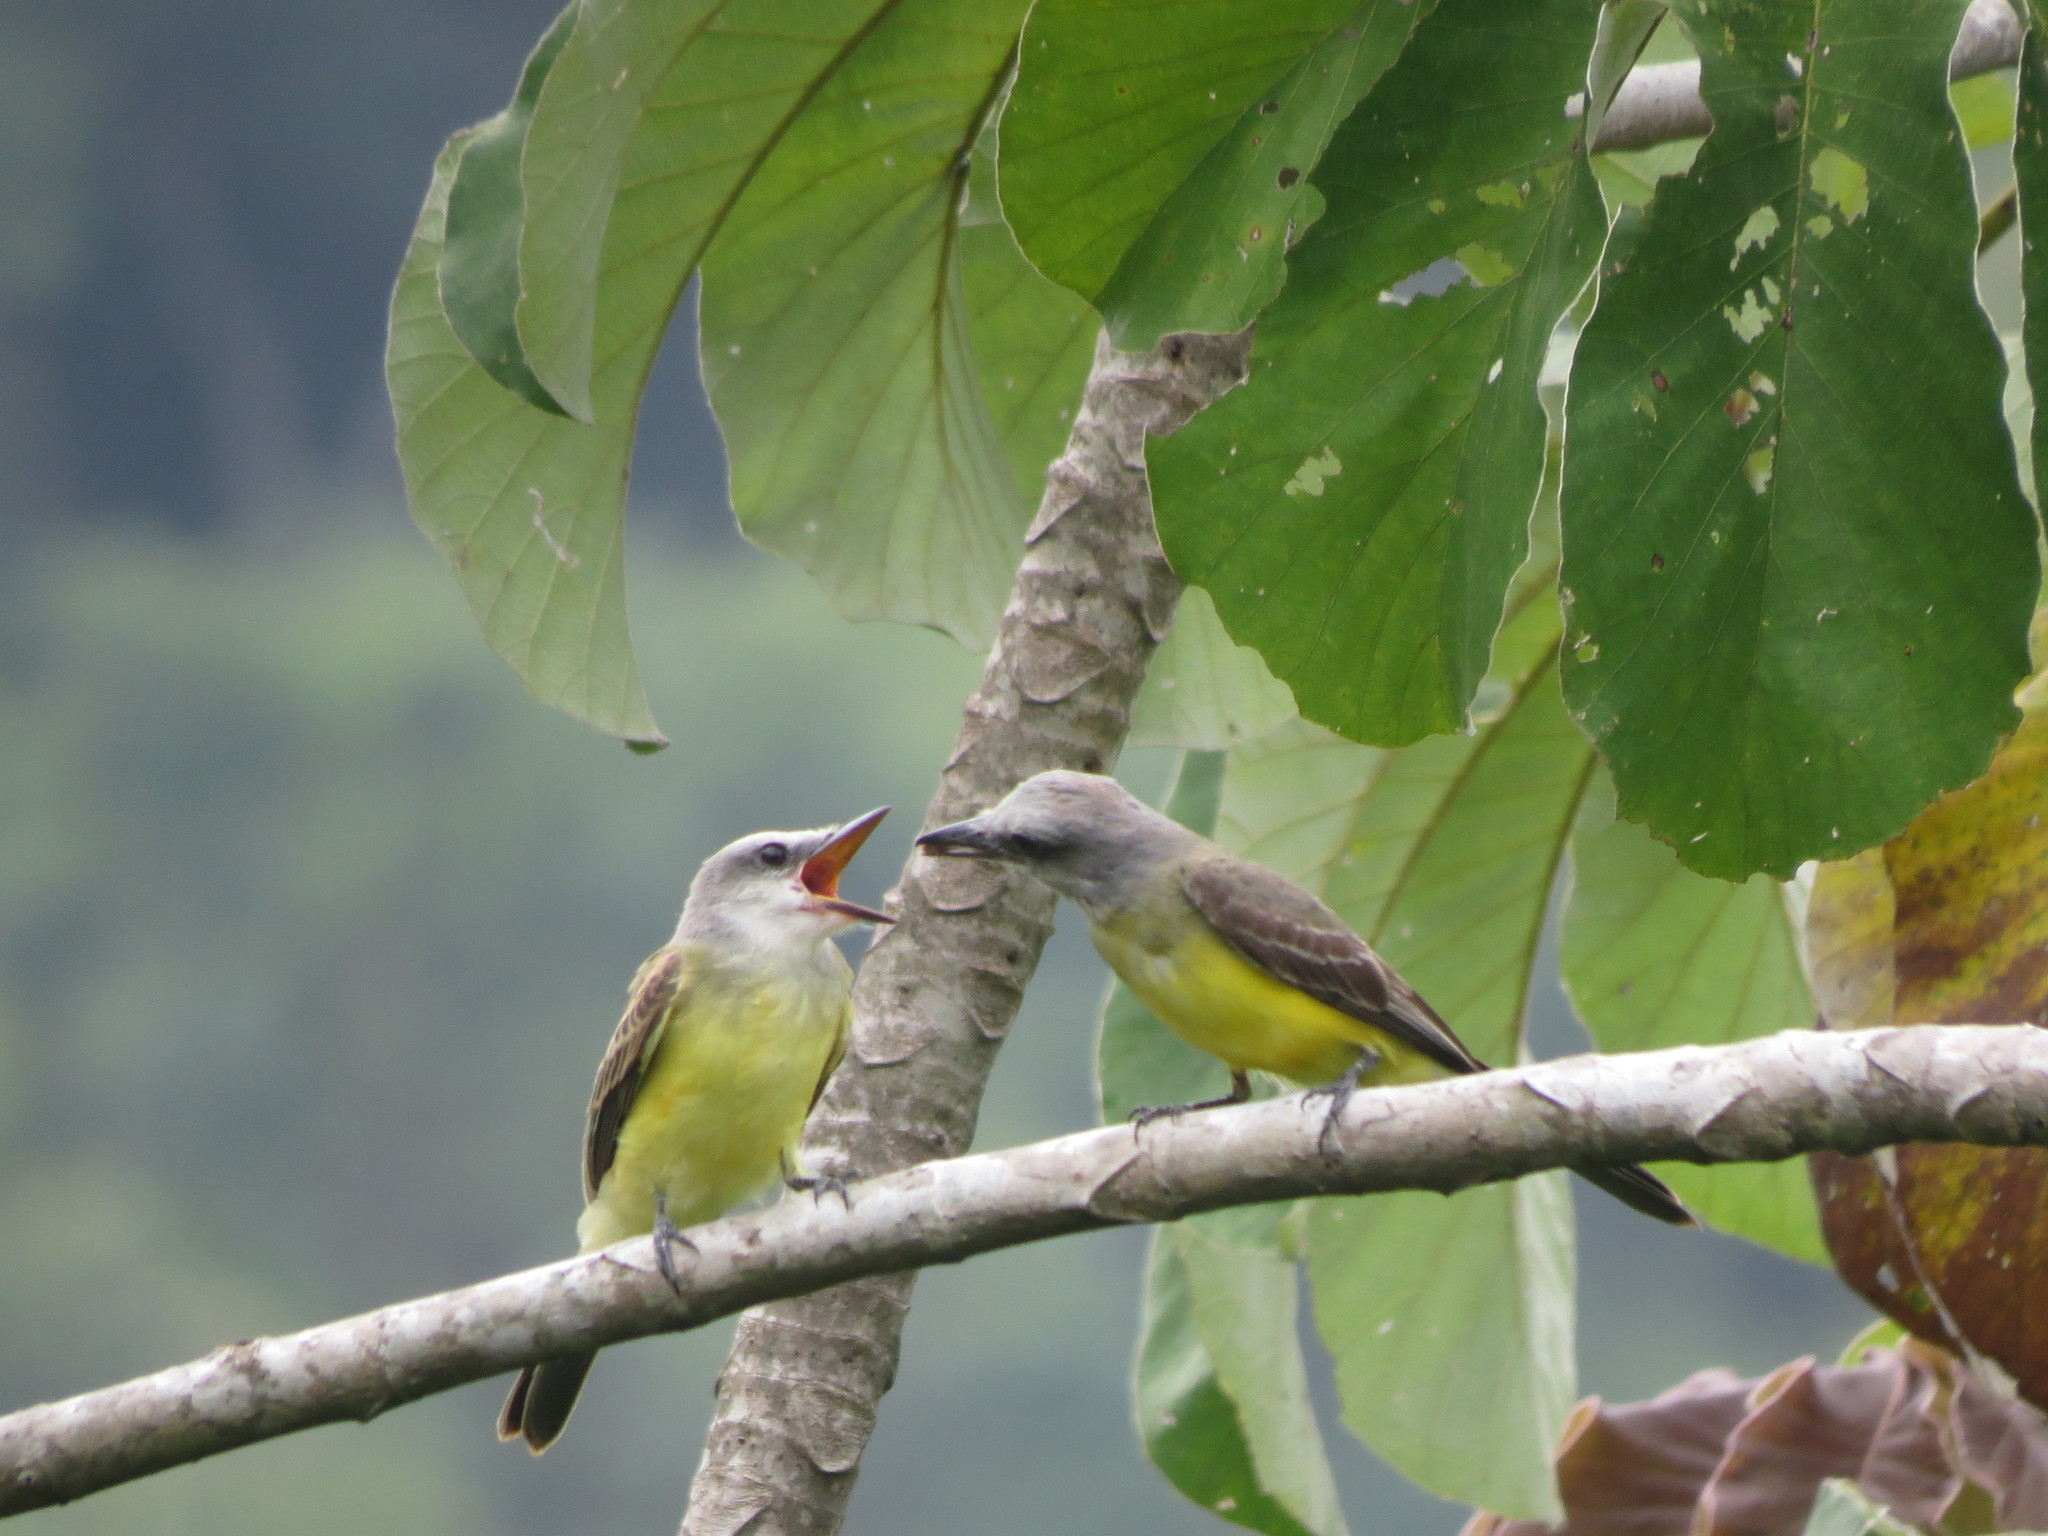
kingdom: Animalia
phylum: Chordata
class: Aves
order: Passeriformes
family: Tyrannidae
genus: Tyrannus
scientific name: Tyrannus melancholicus
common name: Tropical kingbird
